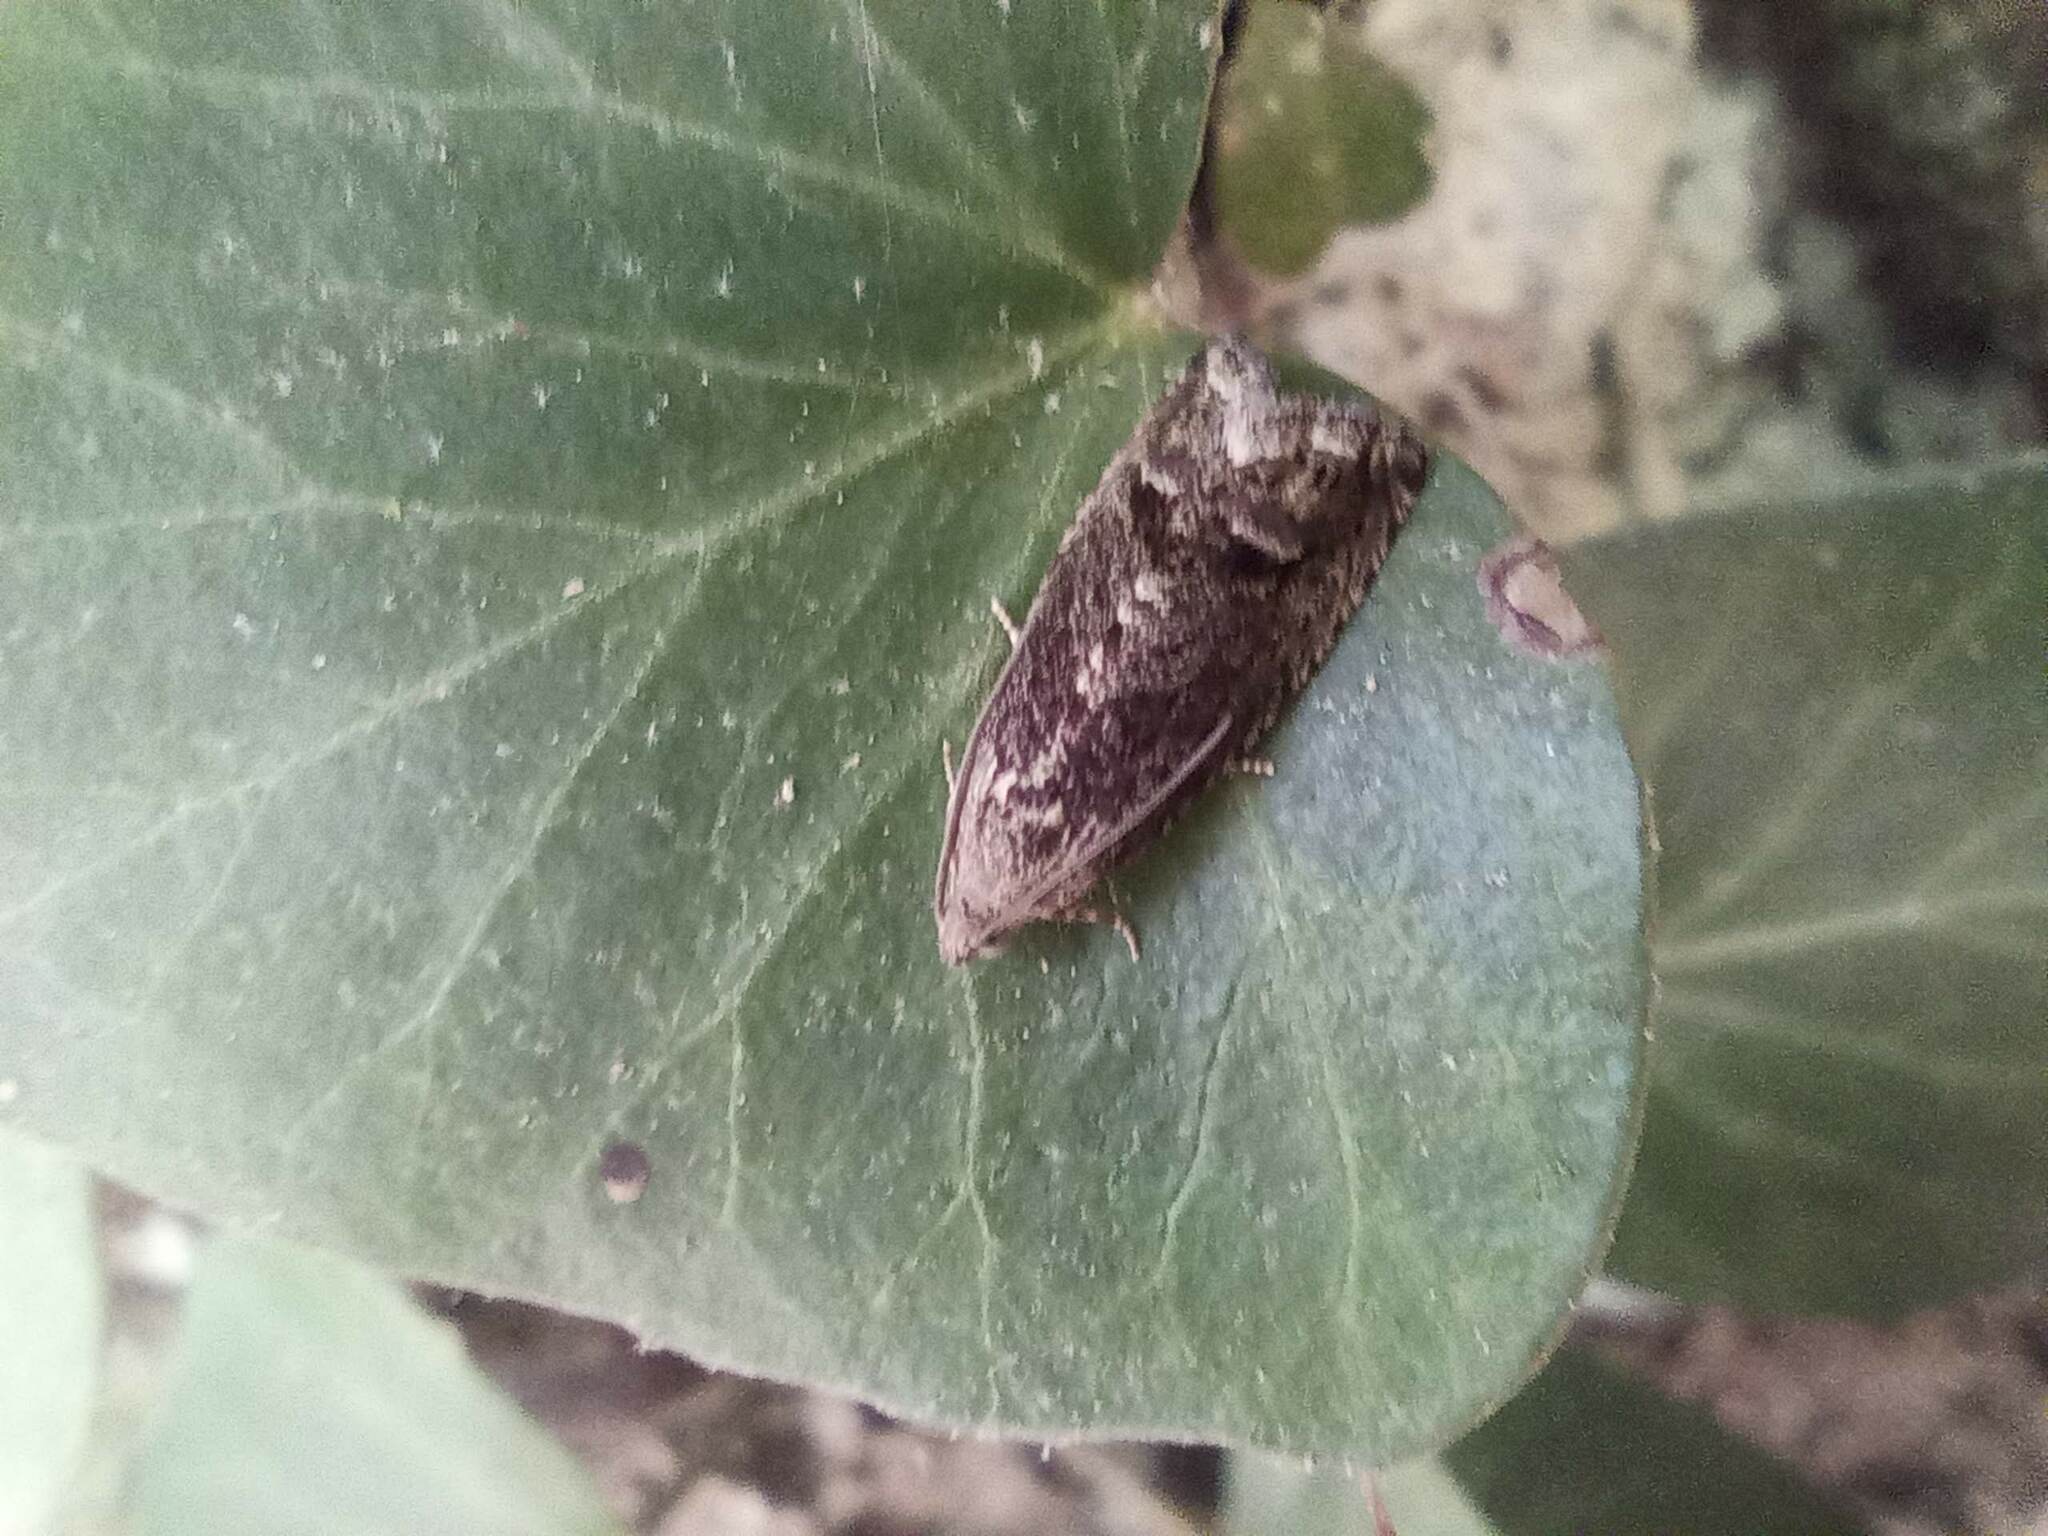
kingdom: Animalia
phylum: Arthropoda
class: Insecta
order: Lepidoptera
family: Tortricidae
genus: Cydia
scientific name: Cydia splendana
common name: De: kastanienwickler, eichenwickler es: oruga de la castaña fr: carpocapse des châtaignes it: cidia o tortrice tardiva delle castagne pt: bichado das castanhas gb: acorn moth, chestnut fruit tortrix
